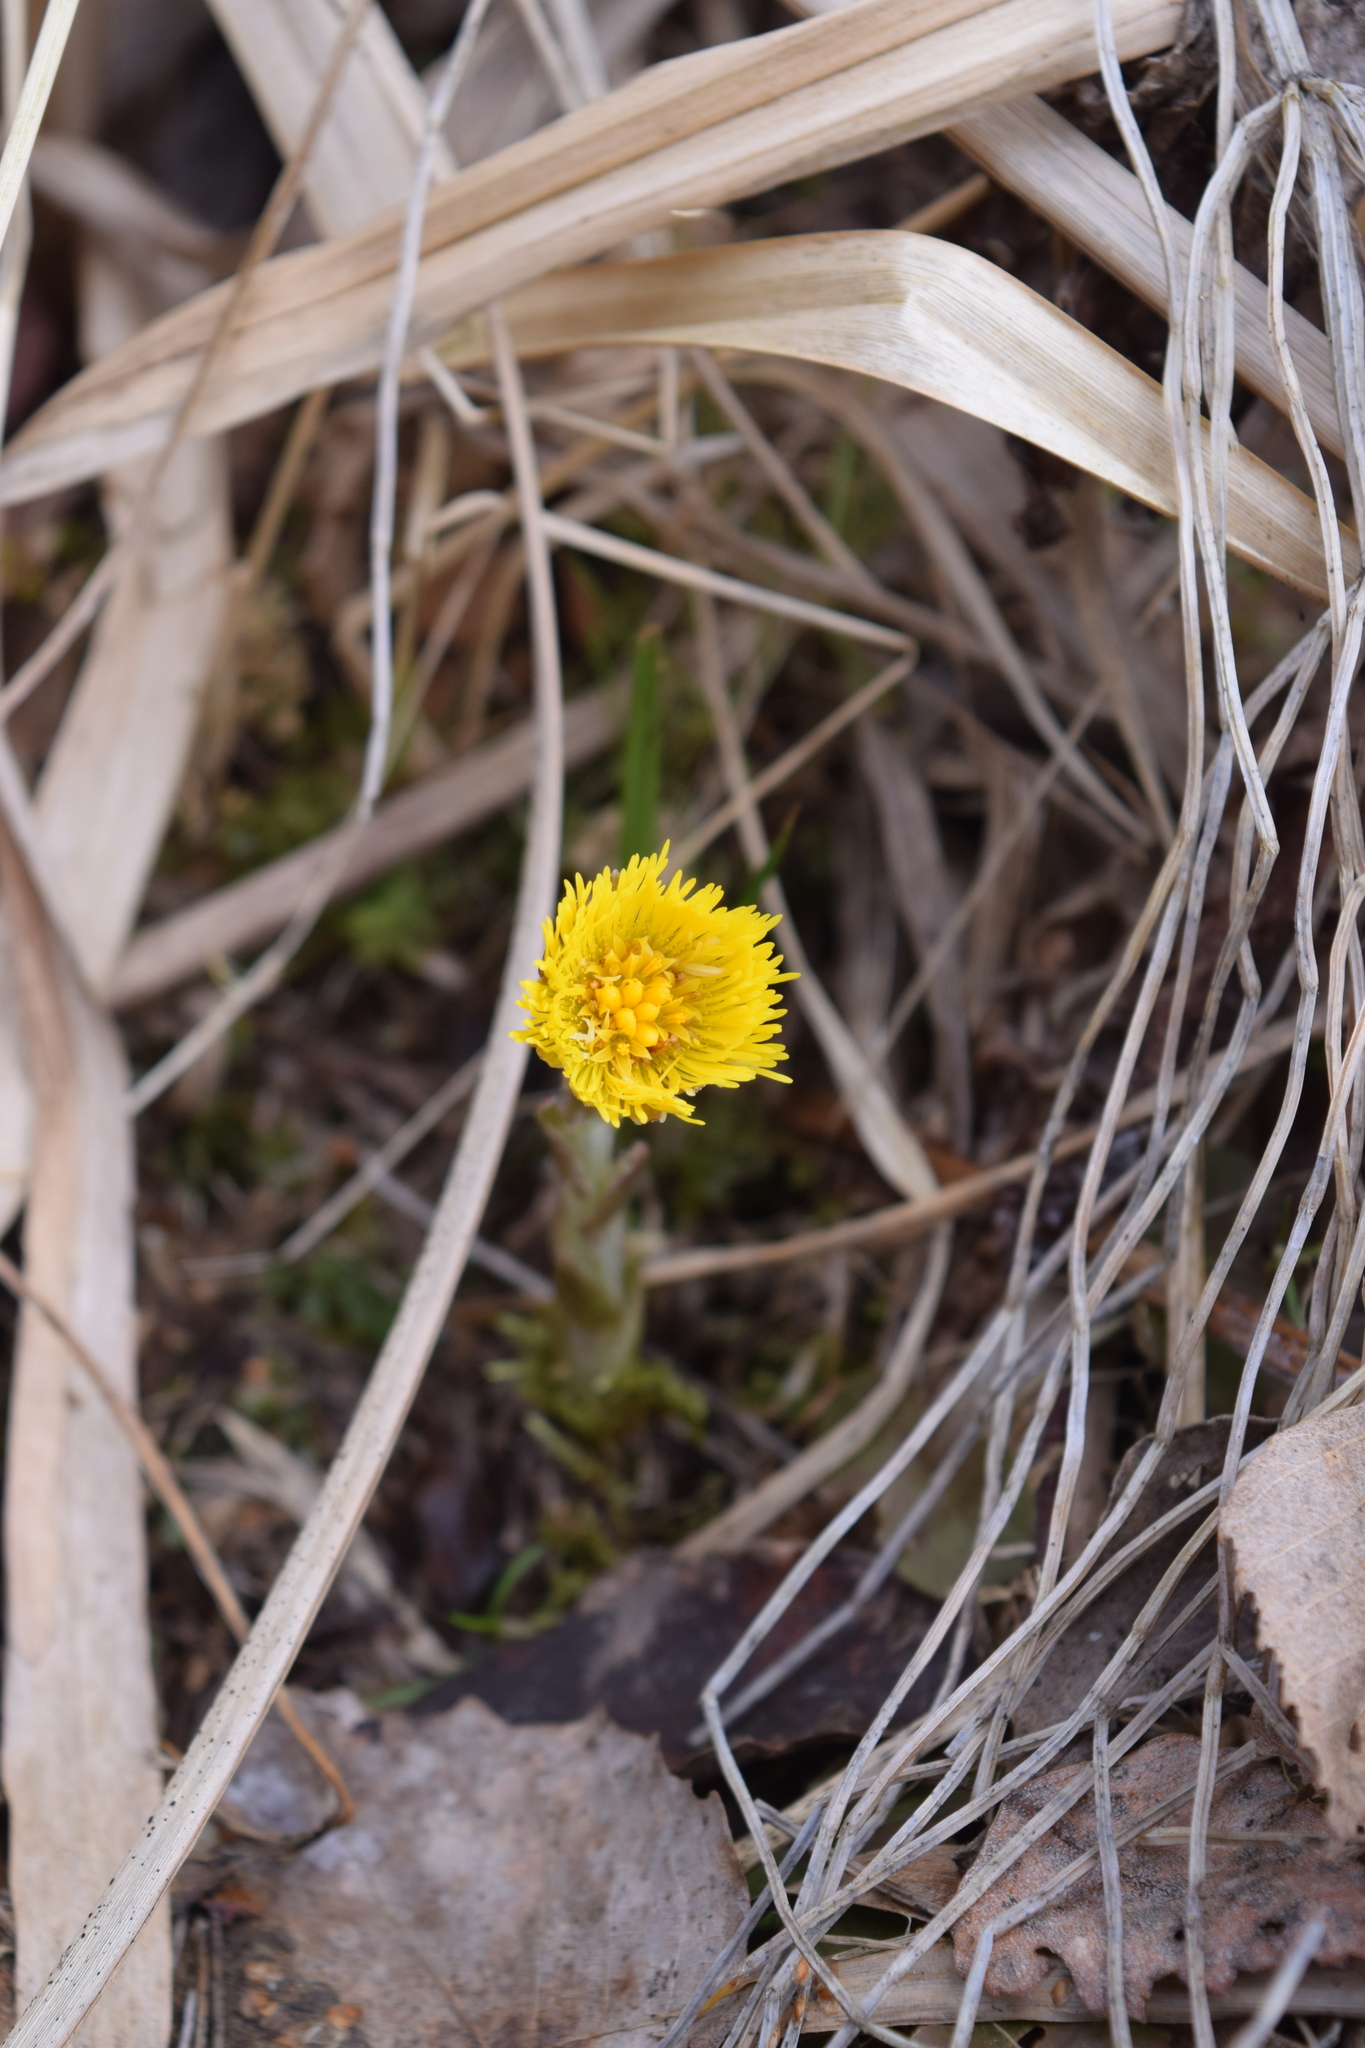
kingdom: Plantae
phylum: Tracheophyta
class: Magnoliopsida
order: Asterales
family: Asteraceae
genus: Tussilago
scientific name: Tussilago farfara
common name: Coltsfoot
